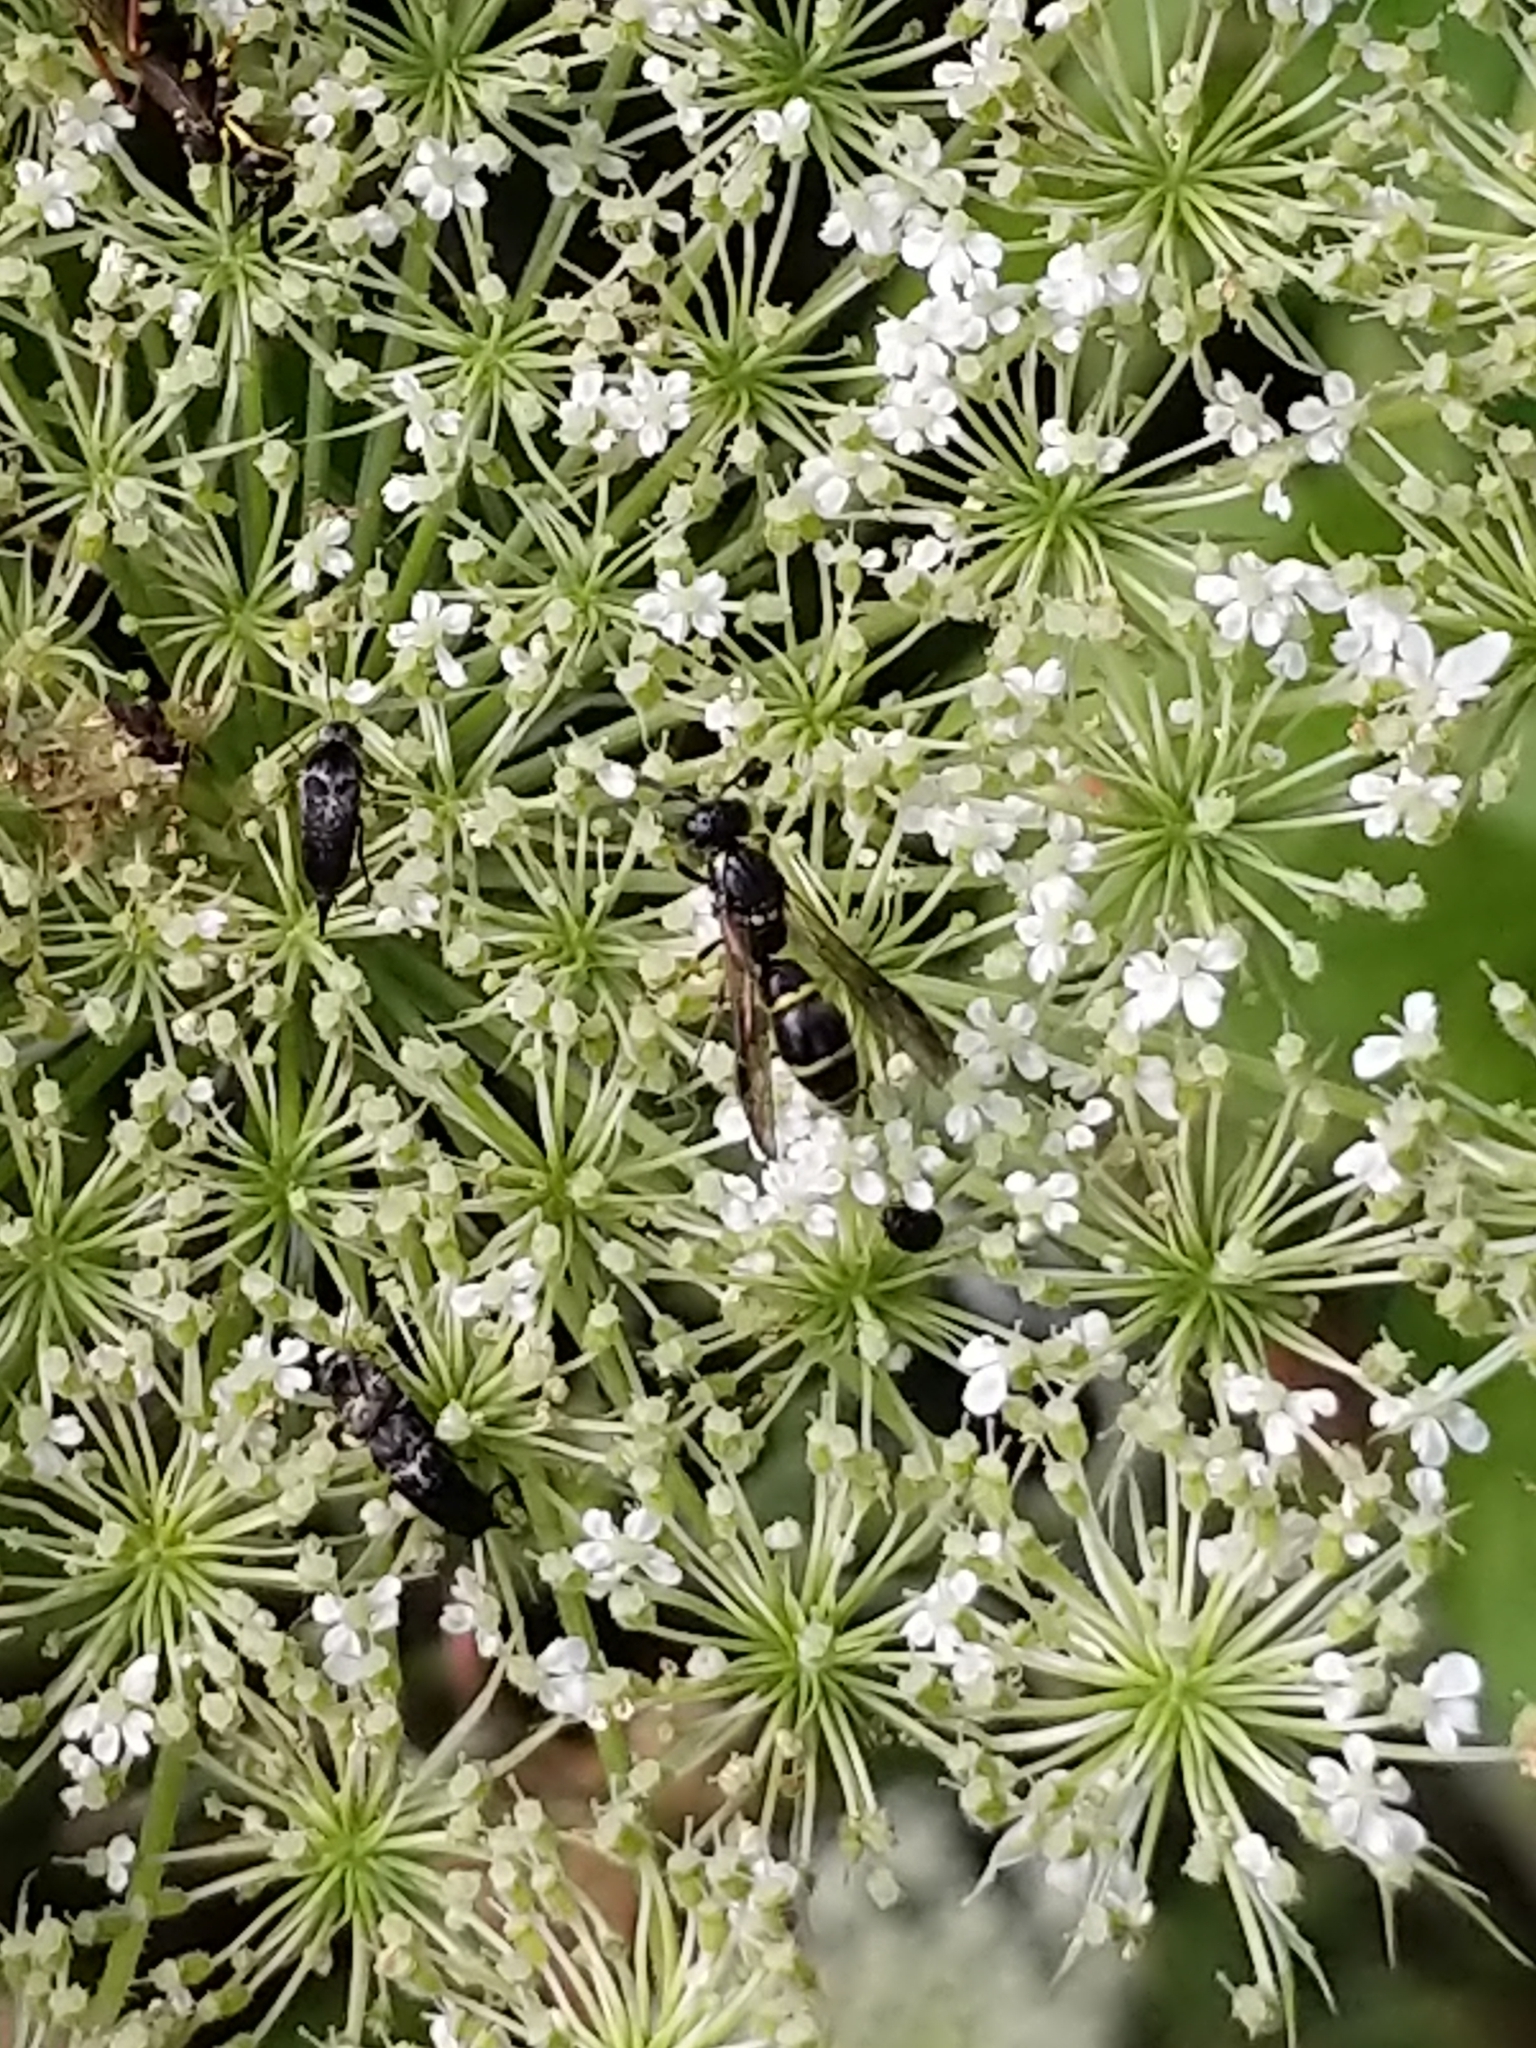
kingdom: Animalia
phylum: Arthropoda
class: Insecta
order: Hymenoptera
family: Eumenidae
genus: Symmorphus
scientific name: Symmorphus
